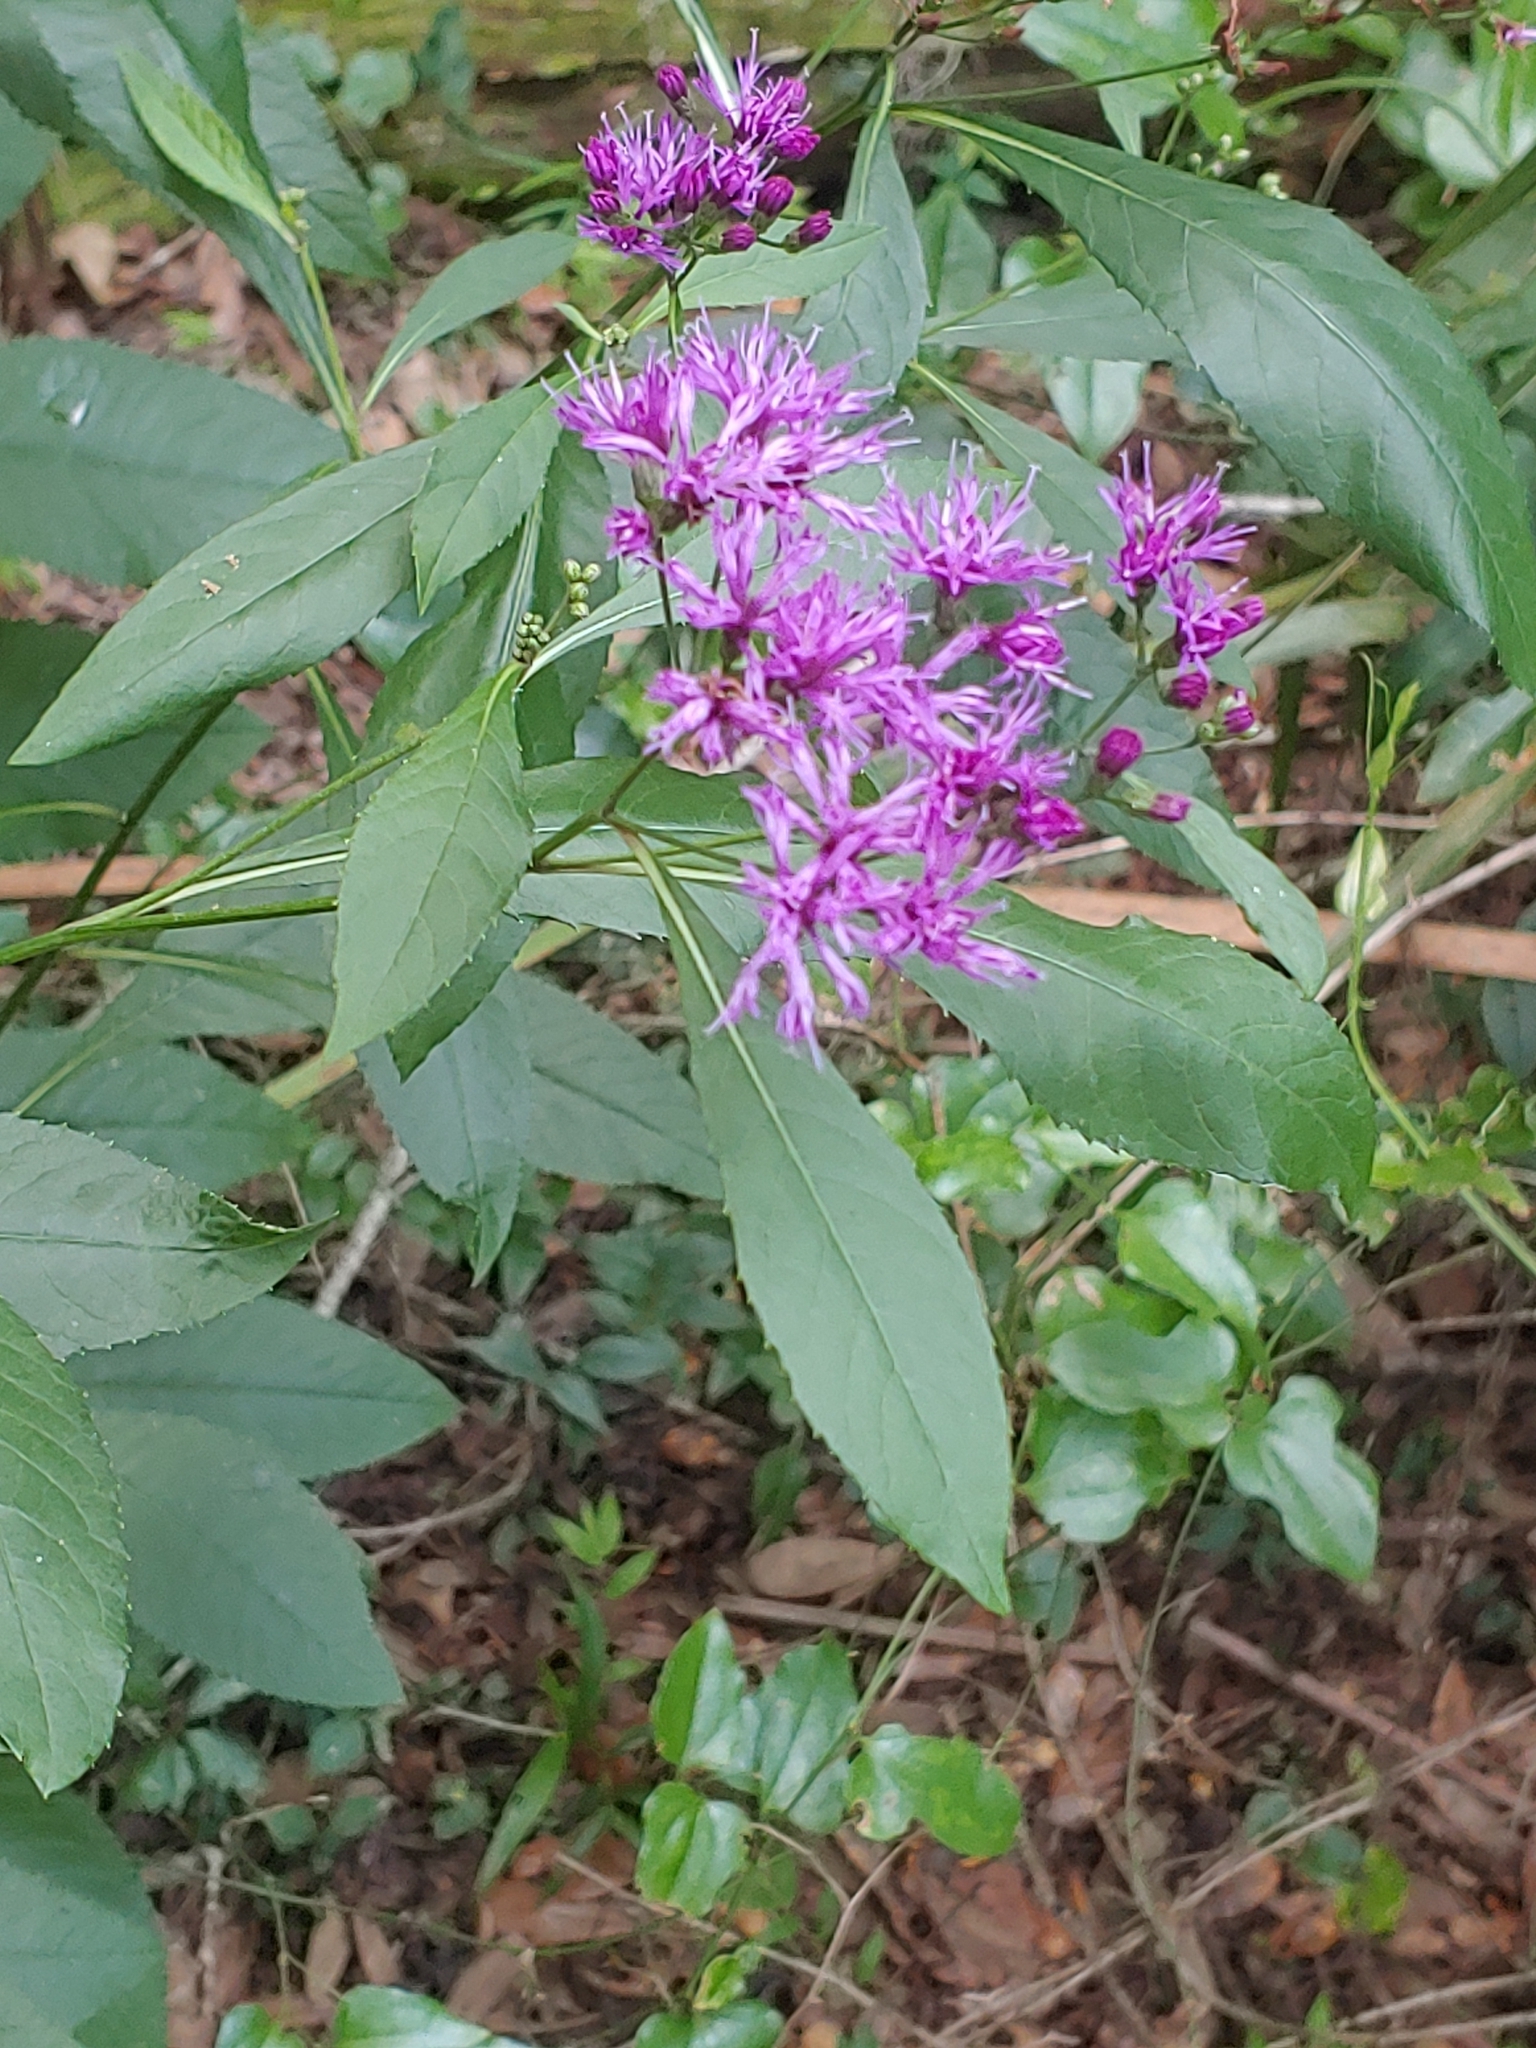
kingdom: Plantae
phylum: Tracheophyta
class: Magnoliopsida
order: Asterales
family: Asteraceae
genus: Vernonia
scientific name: Vernonia gigantea
